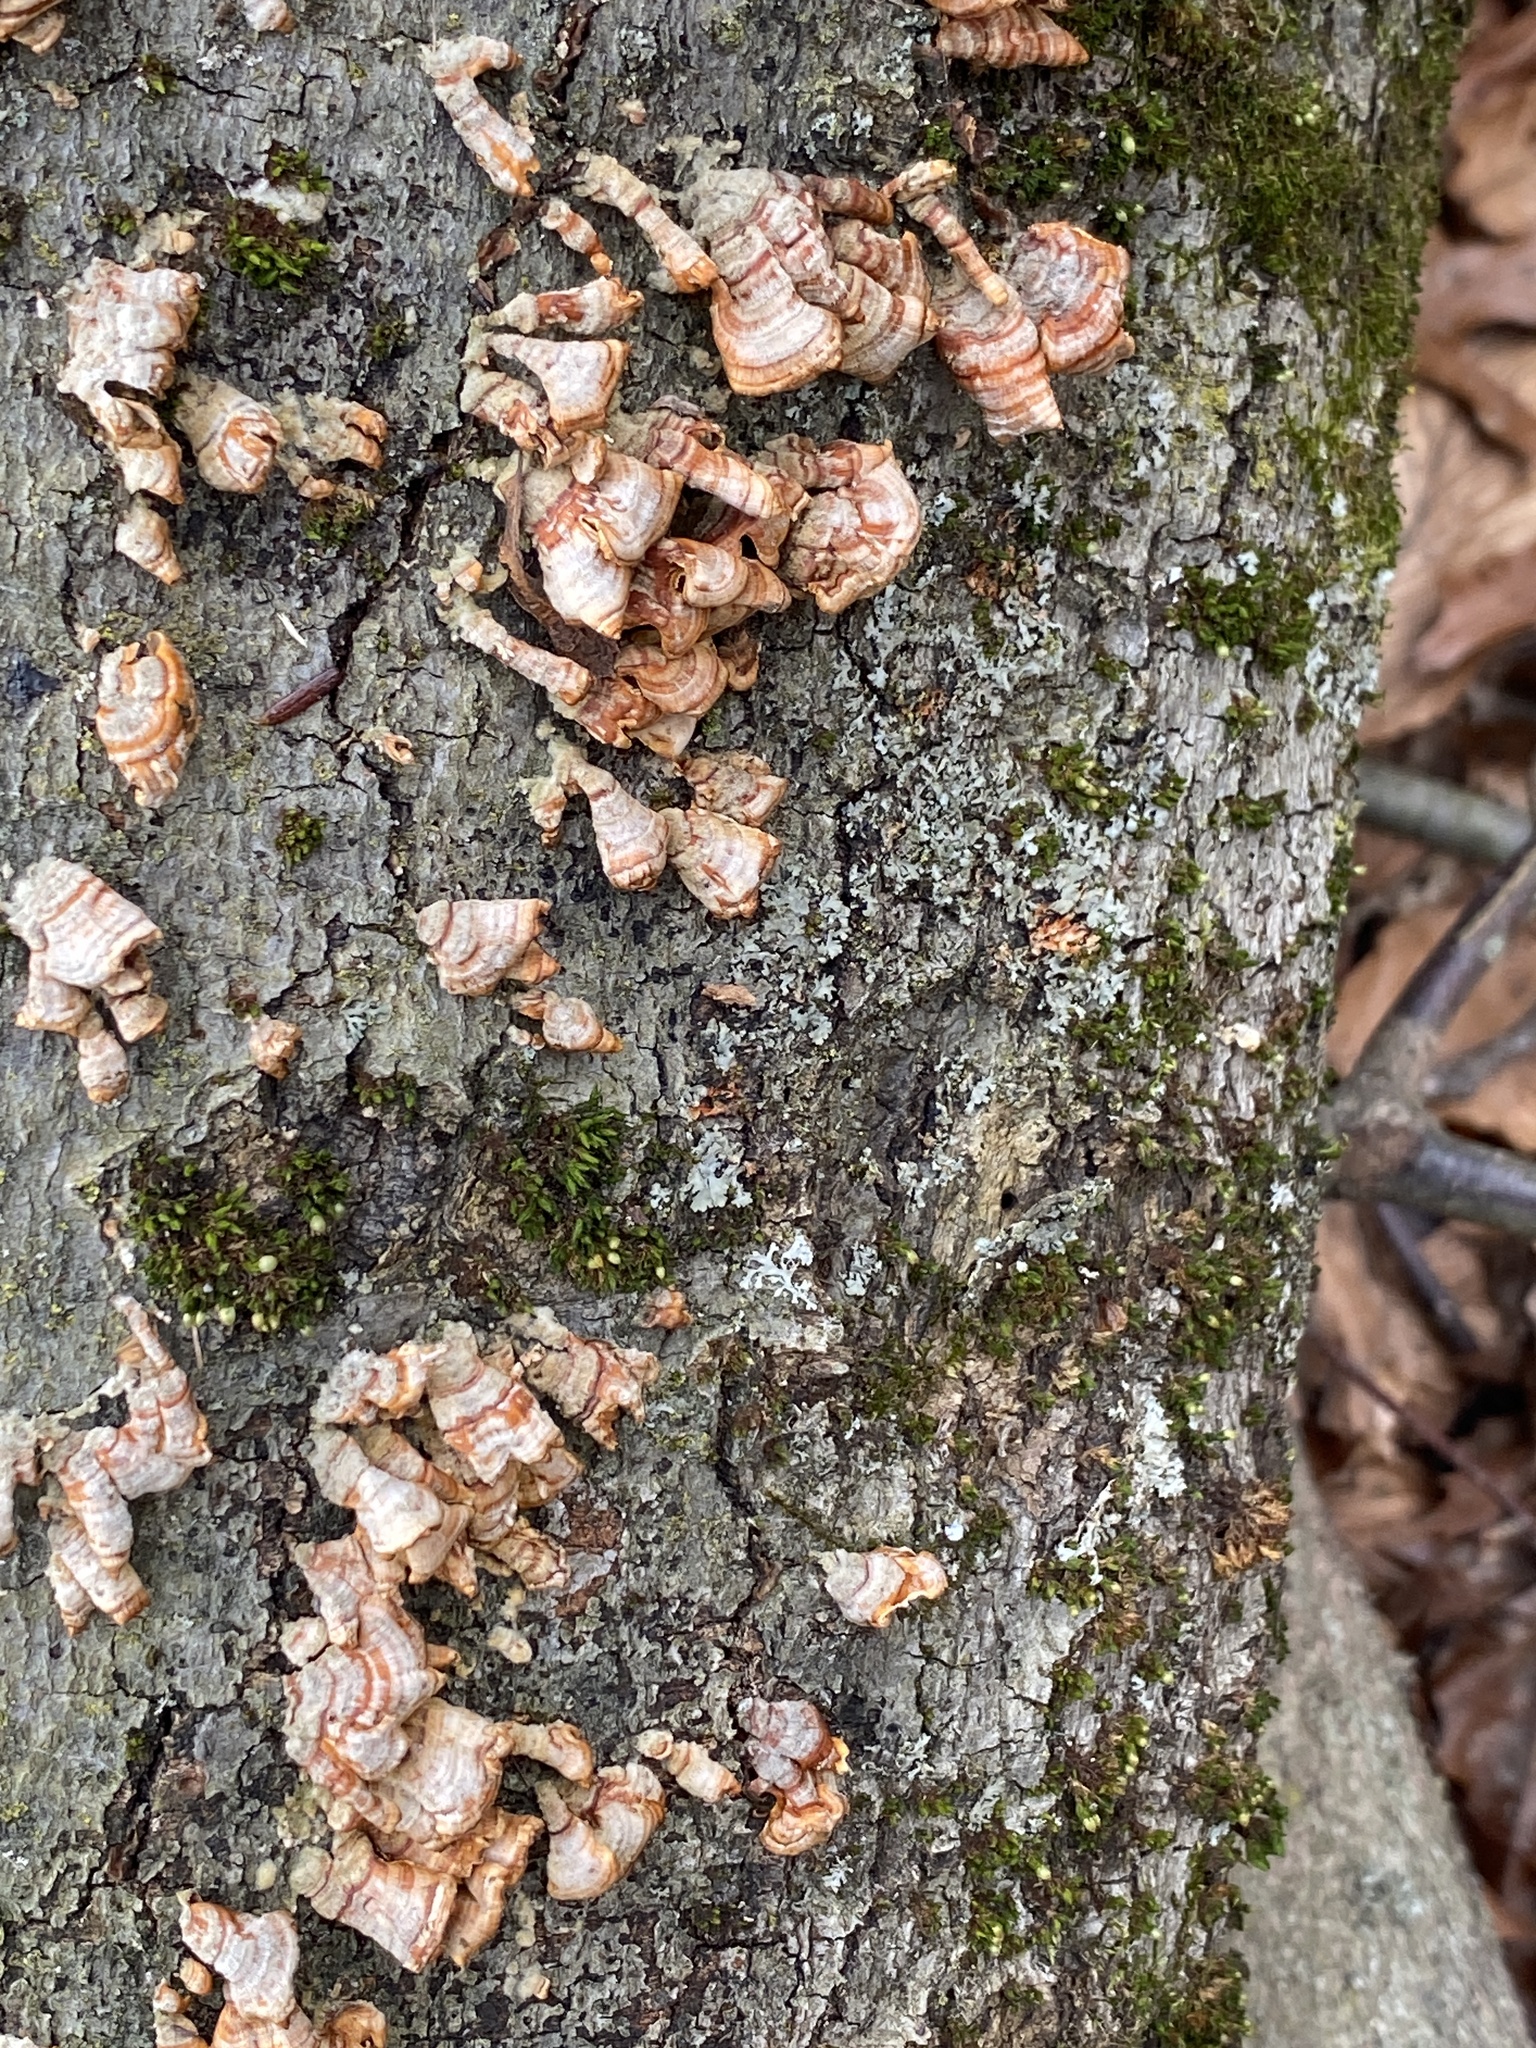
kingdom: Fungi
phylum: Basidiomycota
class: Agaricomycetes
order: Russulales
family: Stereaceae
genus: Stereum
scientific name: Stereum complicatum
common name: Crowded parchment
